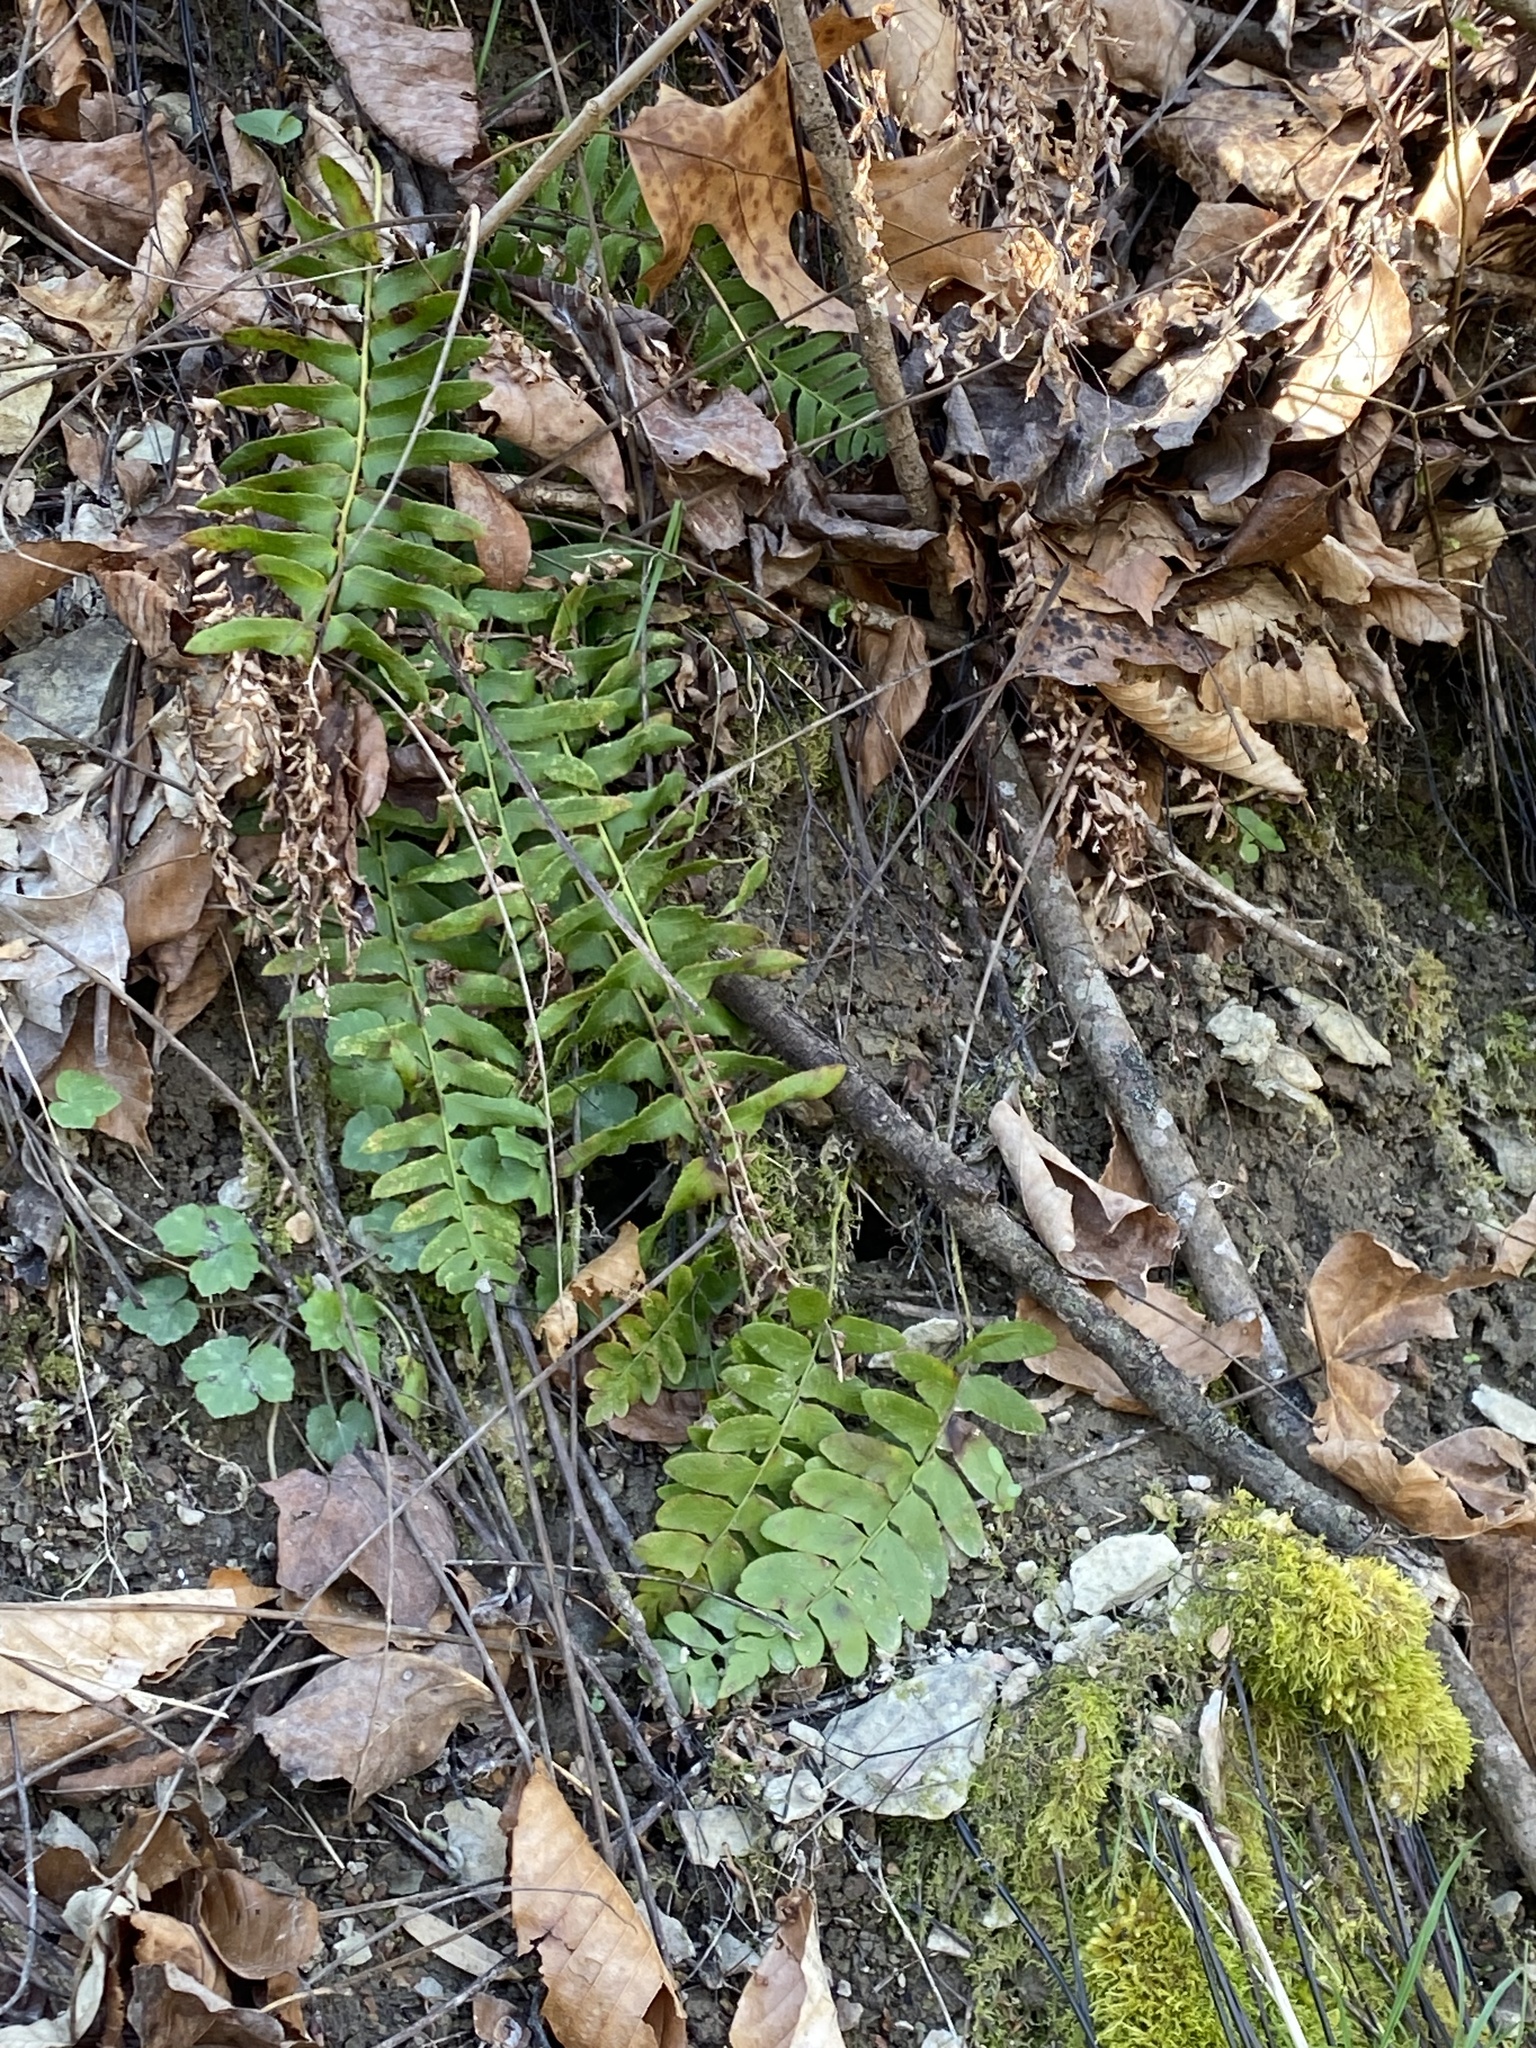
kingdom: Plantae
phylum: Tracheophyta
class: Polypodiopsida
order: Polypodiales
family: Dryopteridaceae
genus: Polystichum
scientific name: Polystichum acrostichoides
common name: Christmas fern
